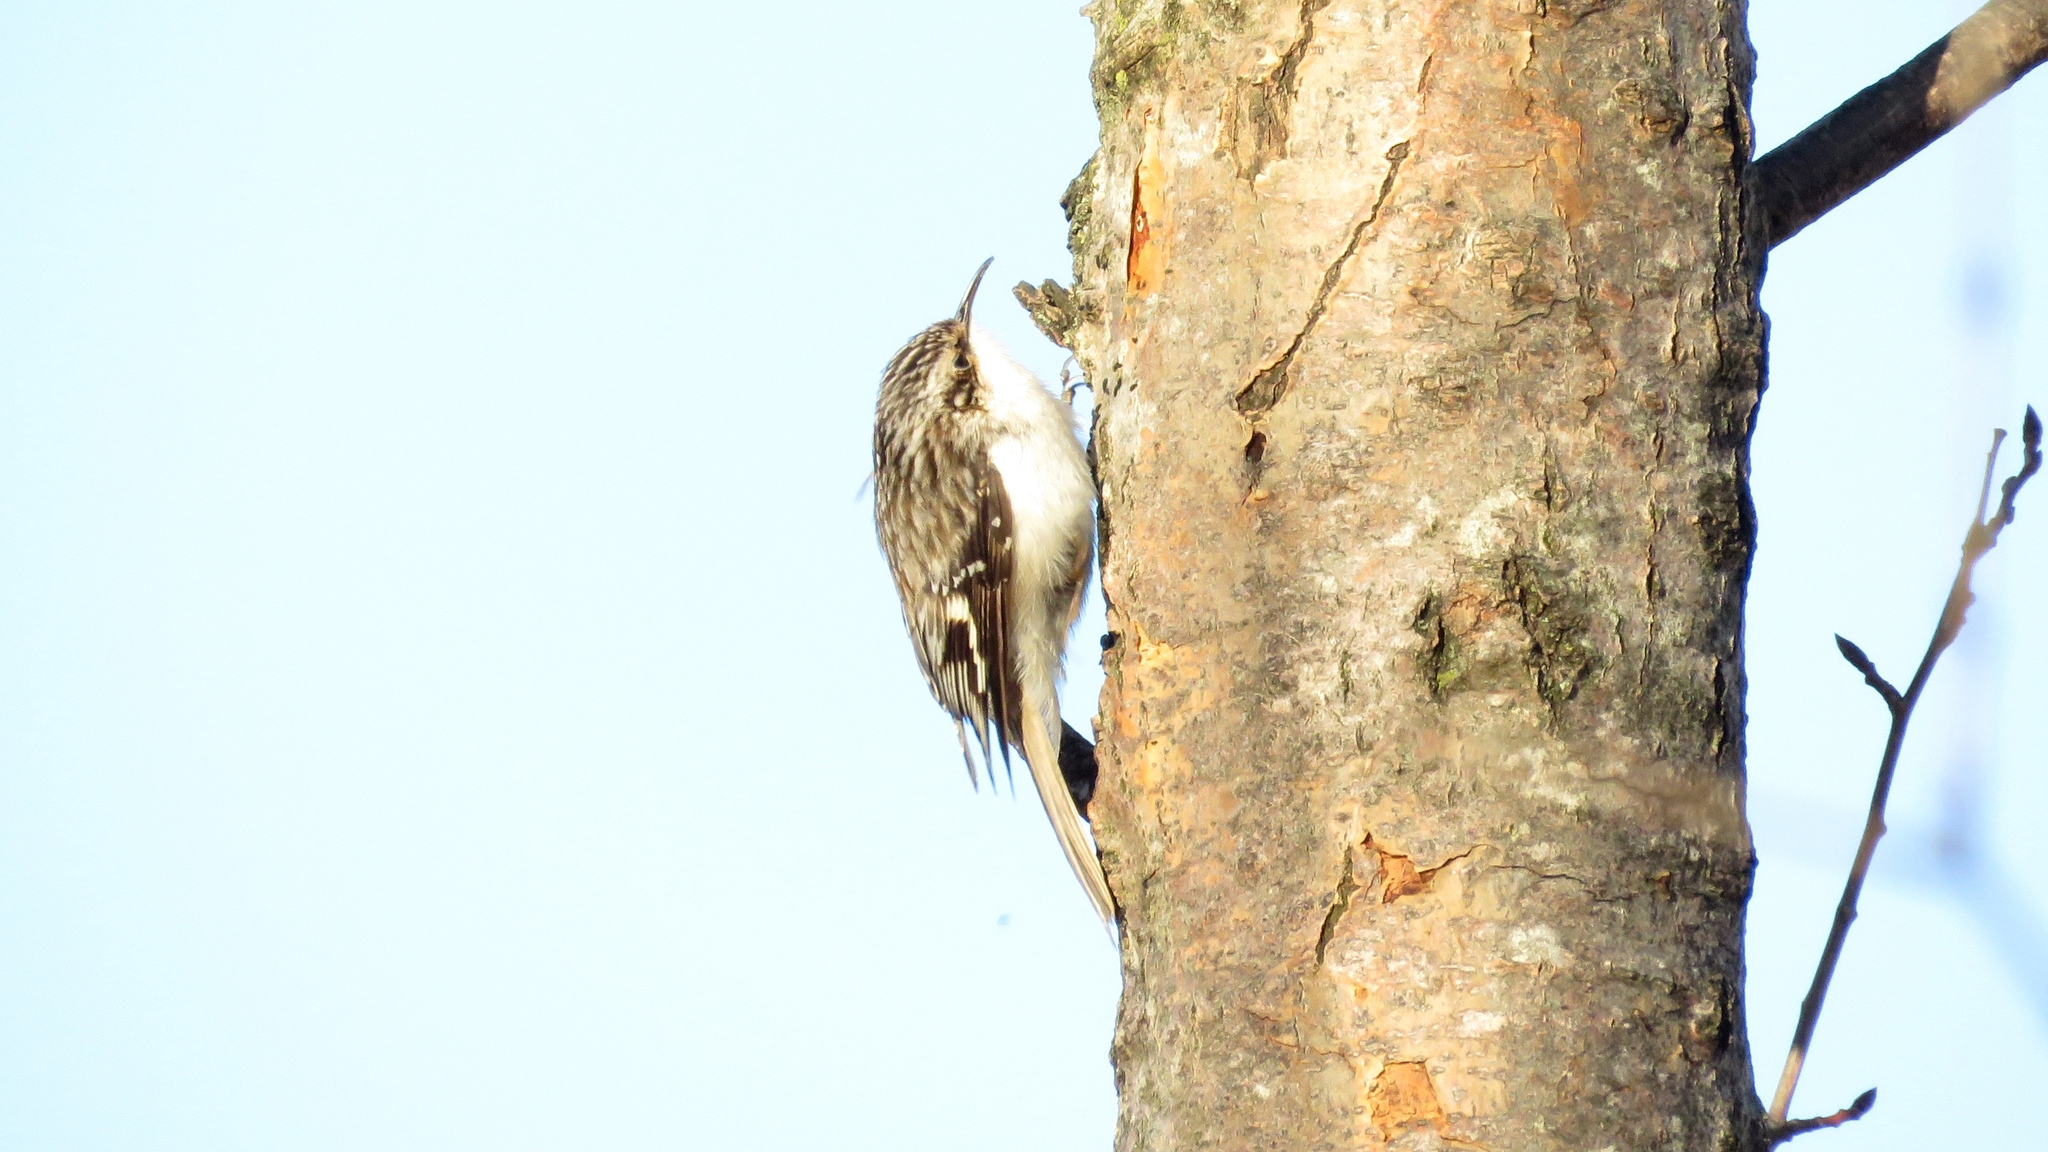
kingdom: Animalia
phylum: Chordata
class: Aves
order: Passeriformes
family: Certhiidae
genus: Certhia
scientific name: Certhia americana
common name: Brown creeper
